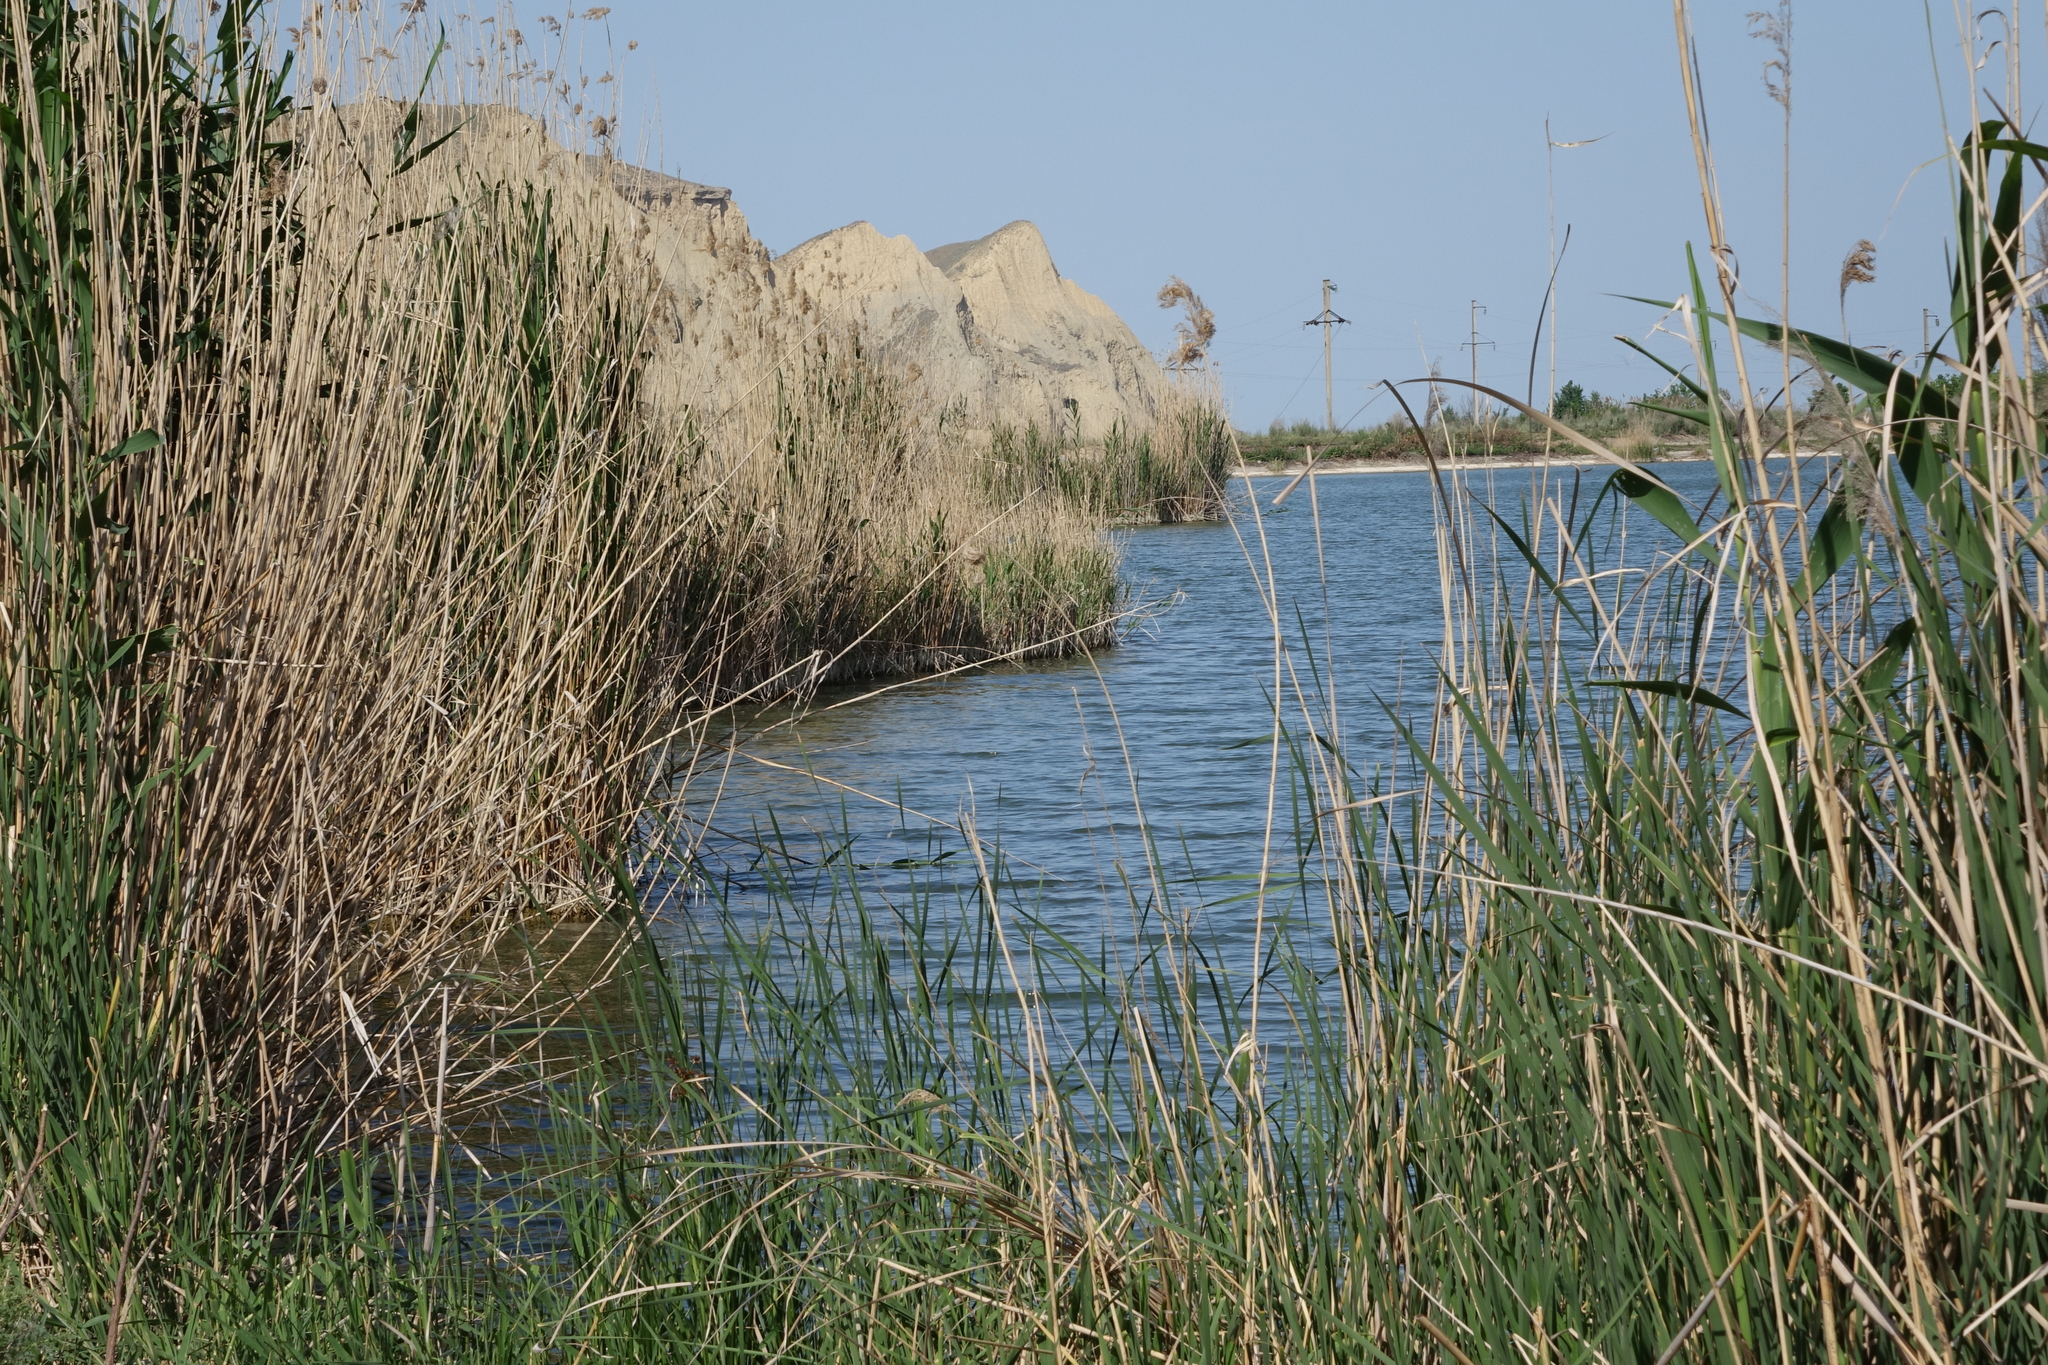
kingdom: Plantae
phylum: Tracheophyta
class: Liliopsida
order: Poales
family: Poaceae
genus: Phragmites
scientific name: Phragmites australis
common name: Common reed
